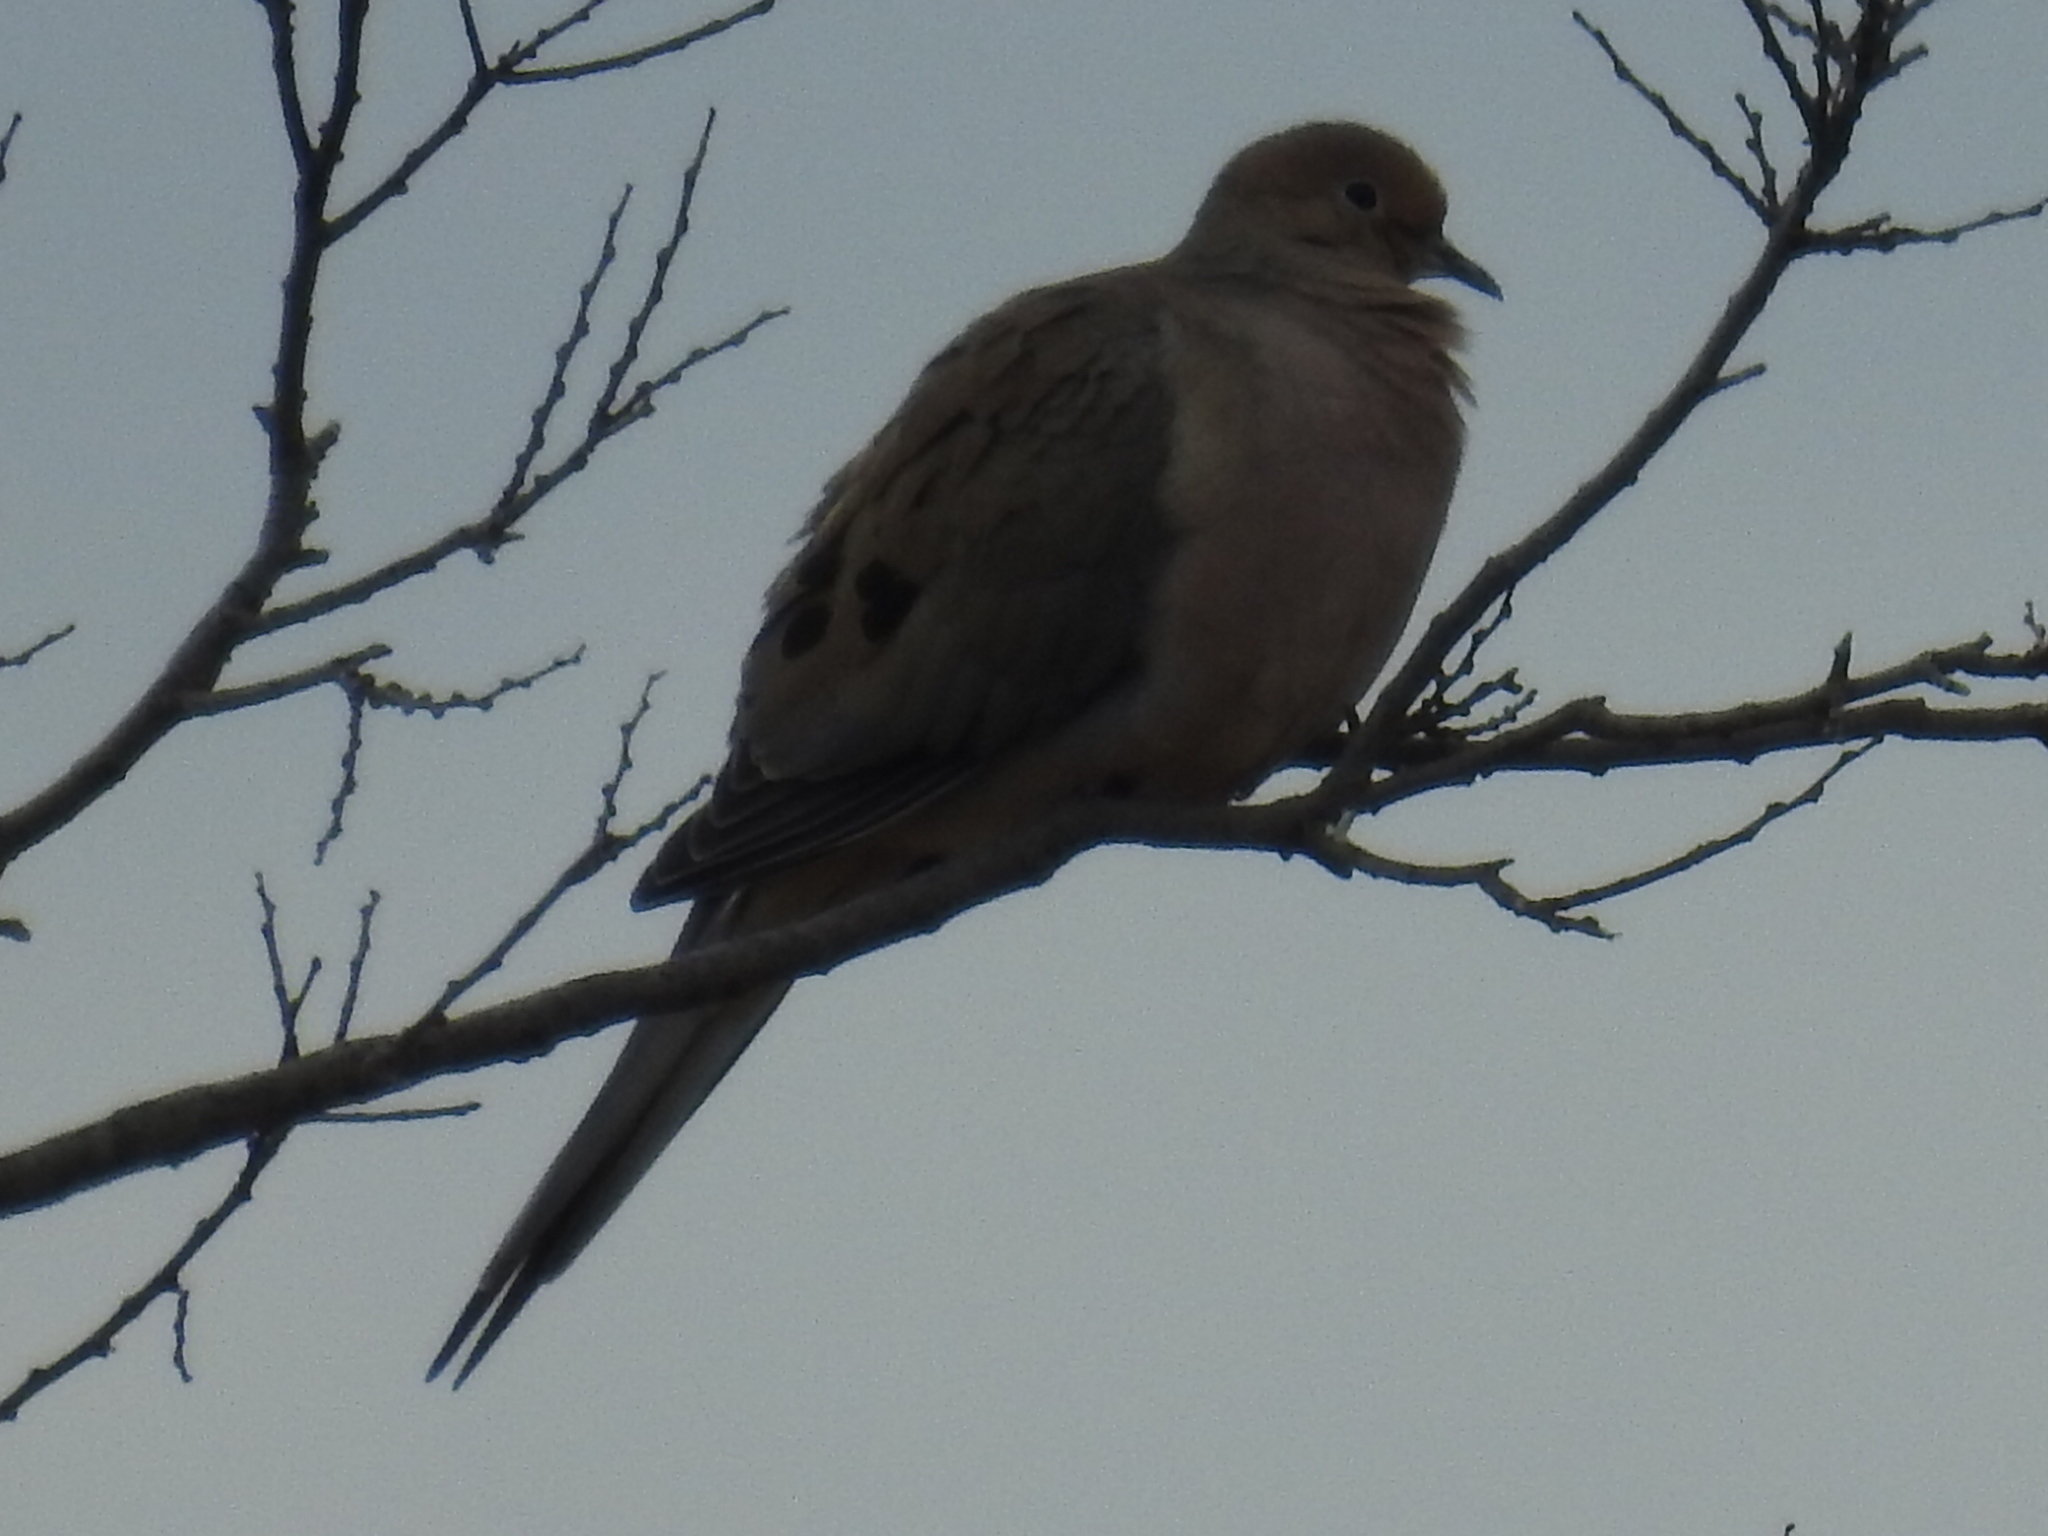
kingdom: Animalia
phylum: Chordata
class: Aves
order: Columbiformes
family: Columbidae
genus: Zenaida
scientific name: Zenaida macroura
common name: Mourning dove
